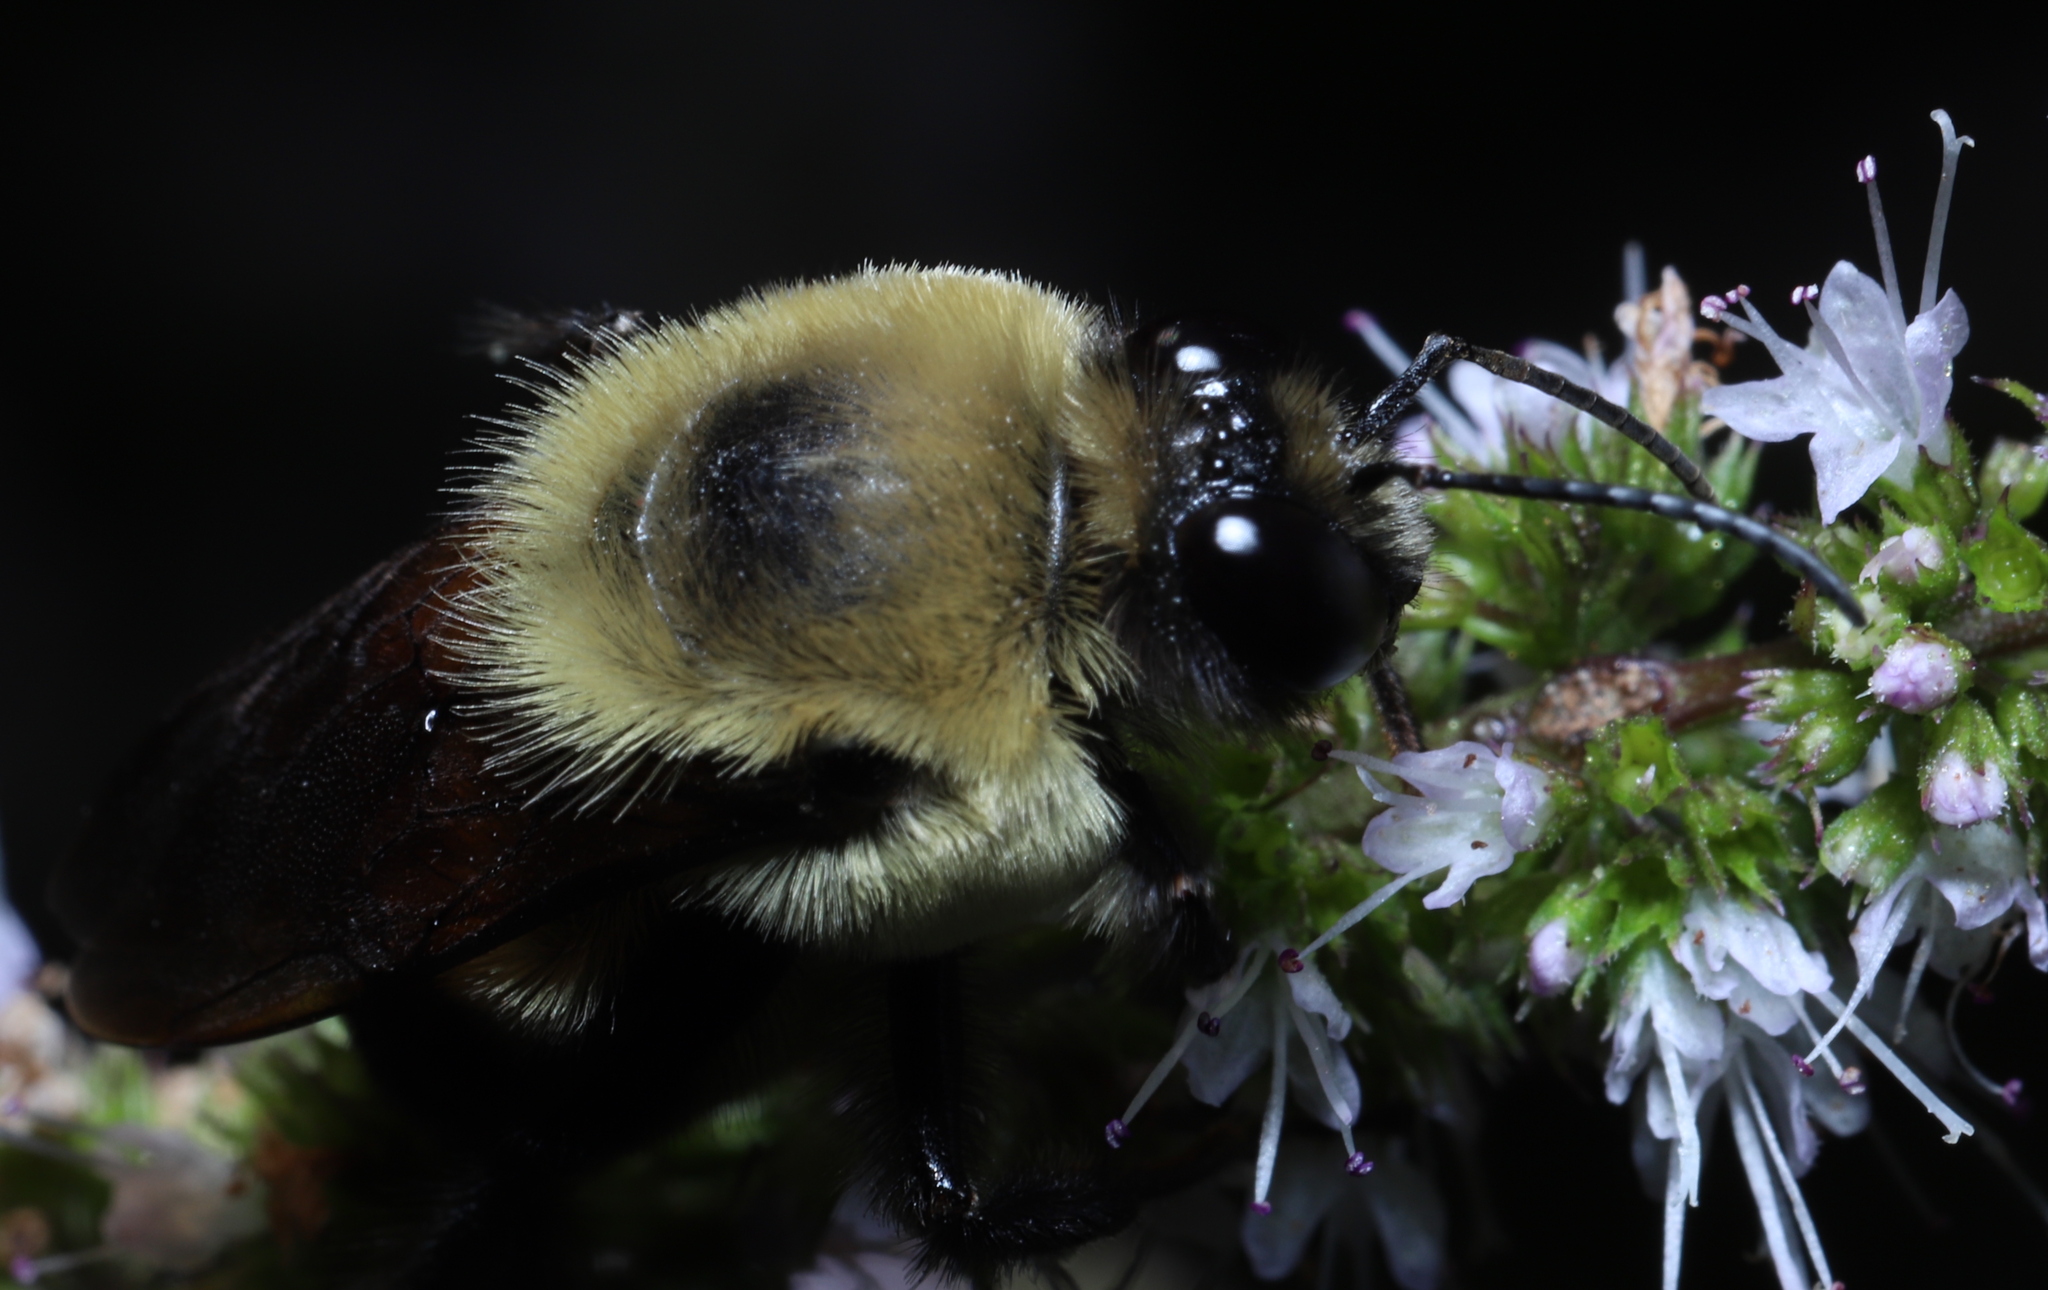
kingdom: Animalia
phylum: Arthropoda
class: Insecta
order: Hymenoptera
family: Apidae
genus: Bombus
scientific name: Bombus griseocollis
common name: Brown-belted bumble bee
